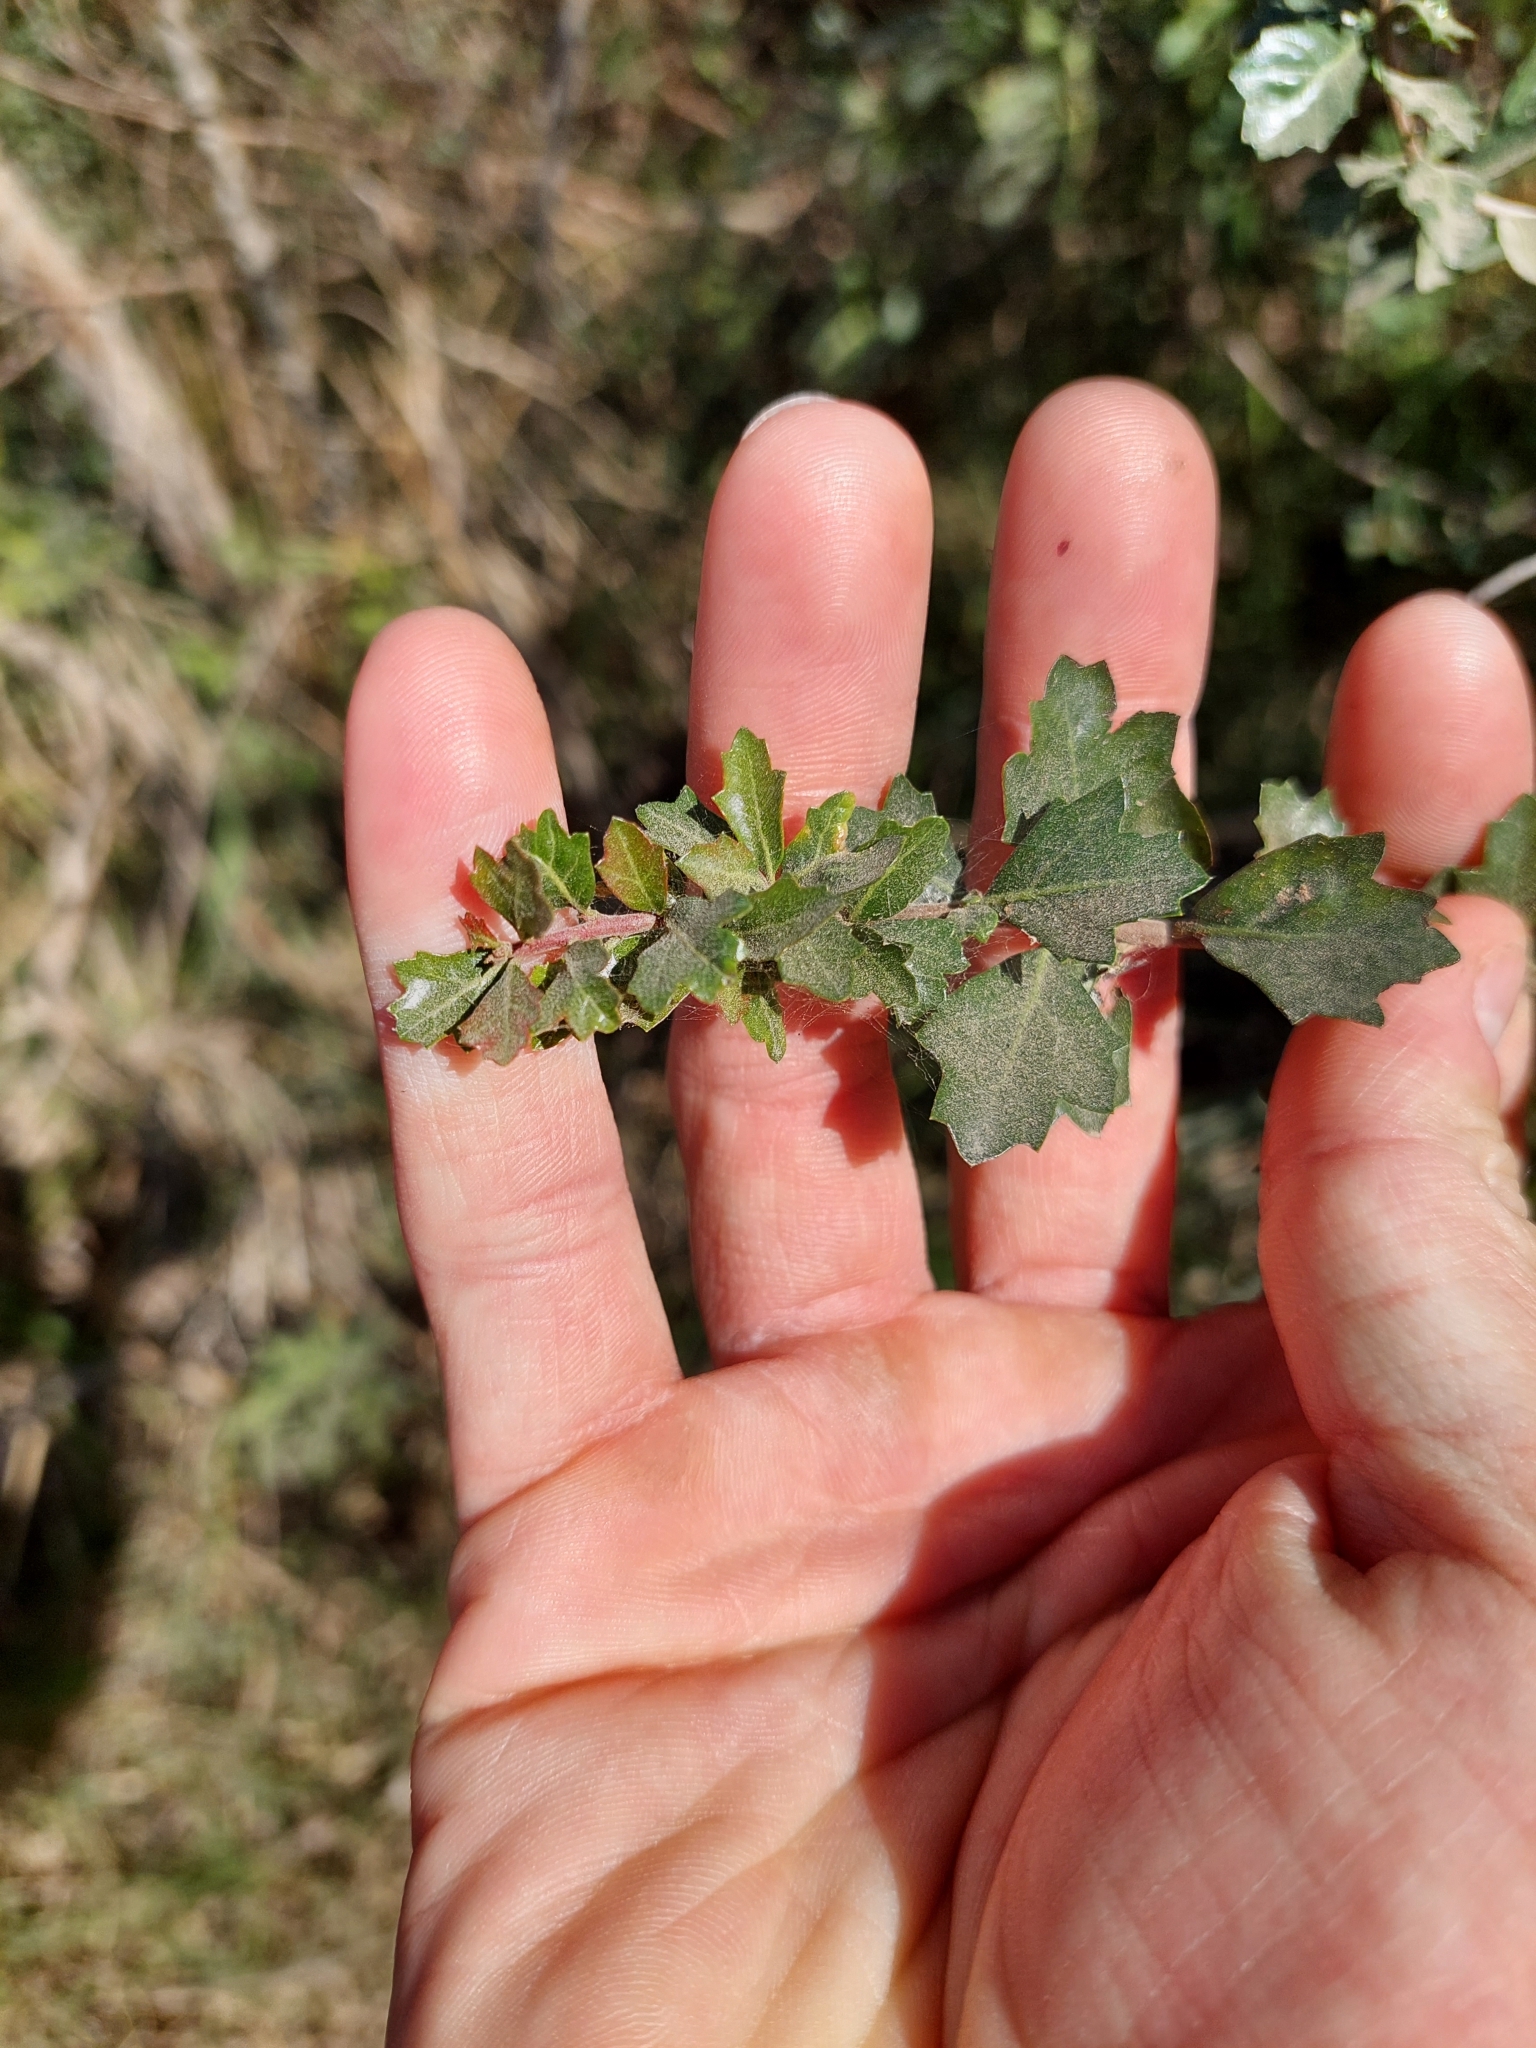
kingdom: Plantae
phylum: Tracheophyta
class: Magnoliopsida
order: Sapindales
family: Anacardiaceae
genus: Schinus
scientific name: Schinus fasciculata
